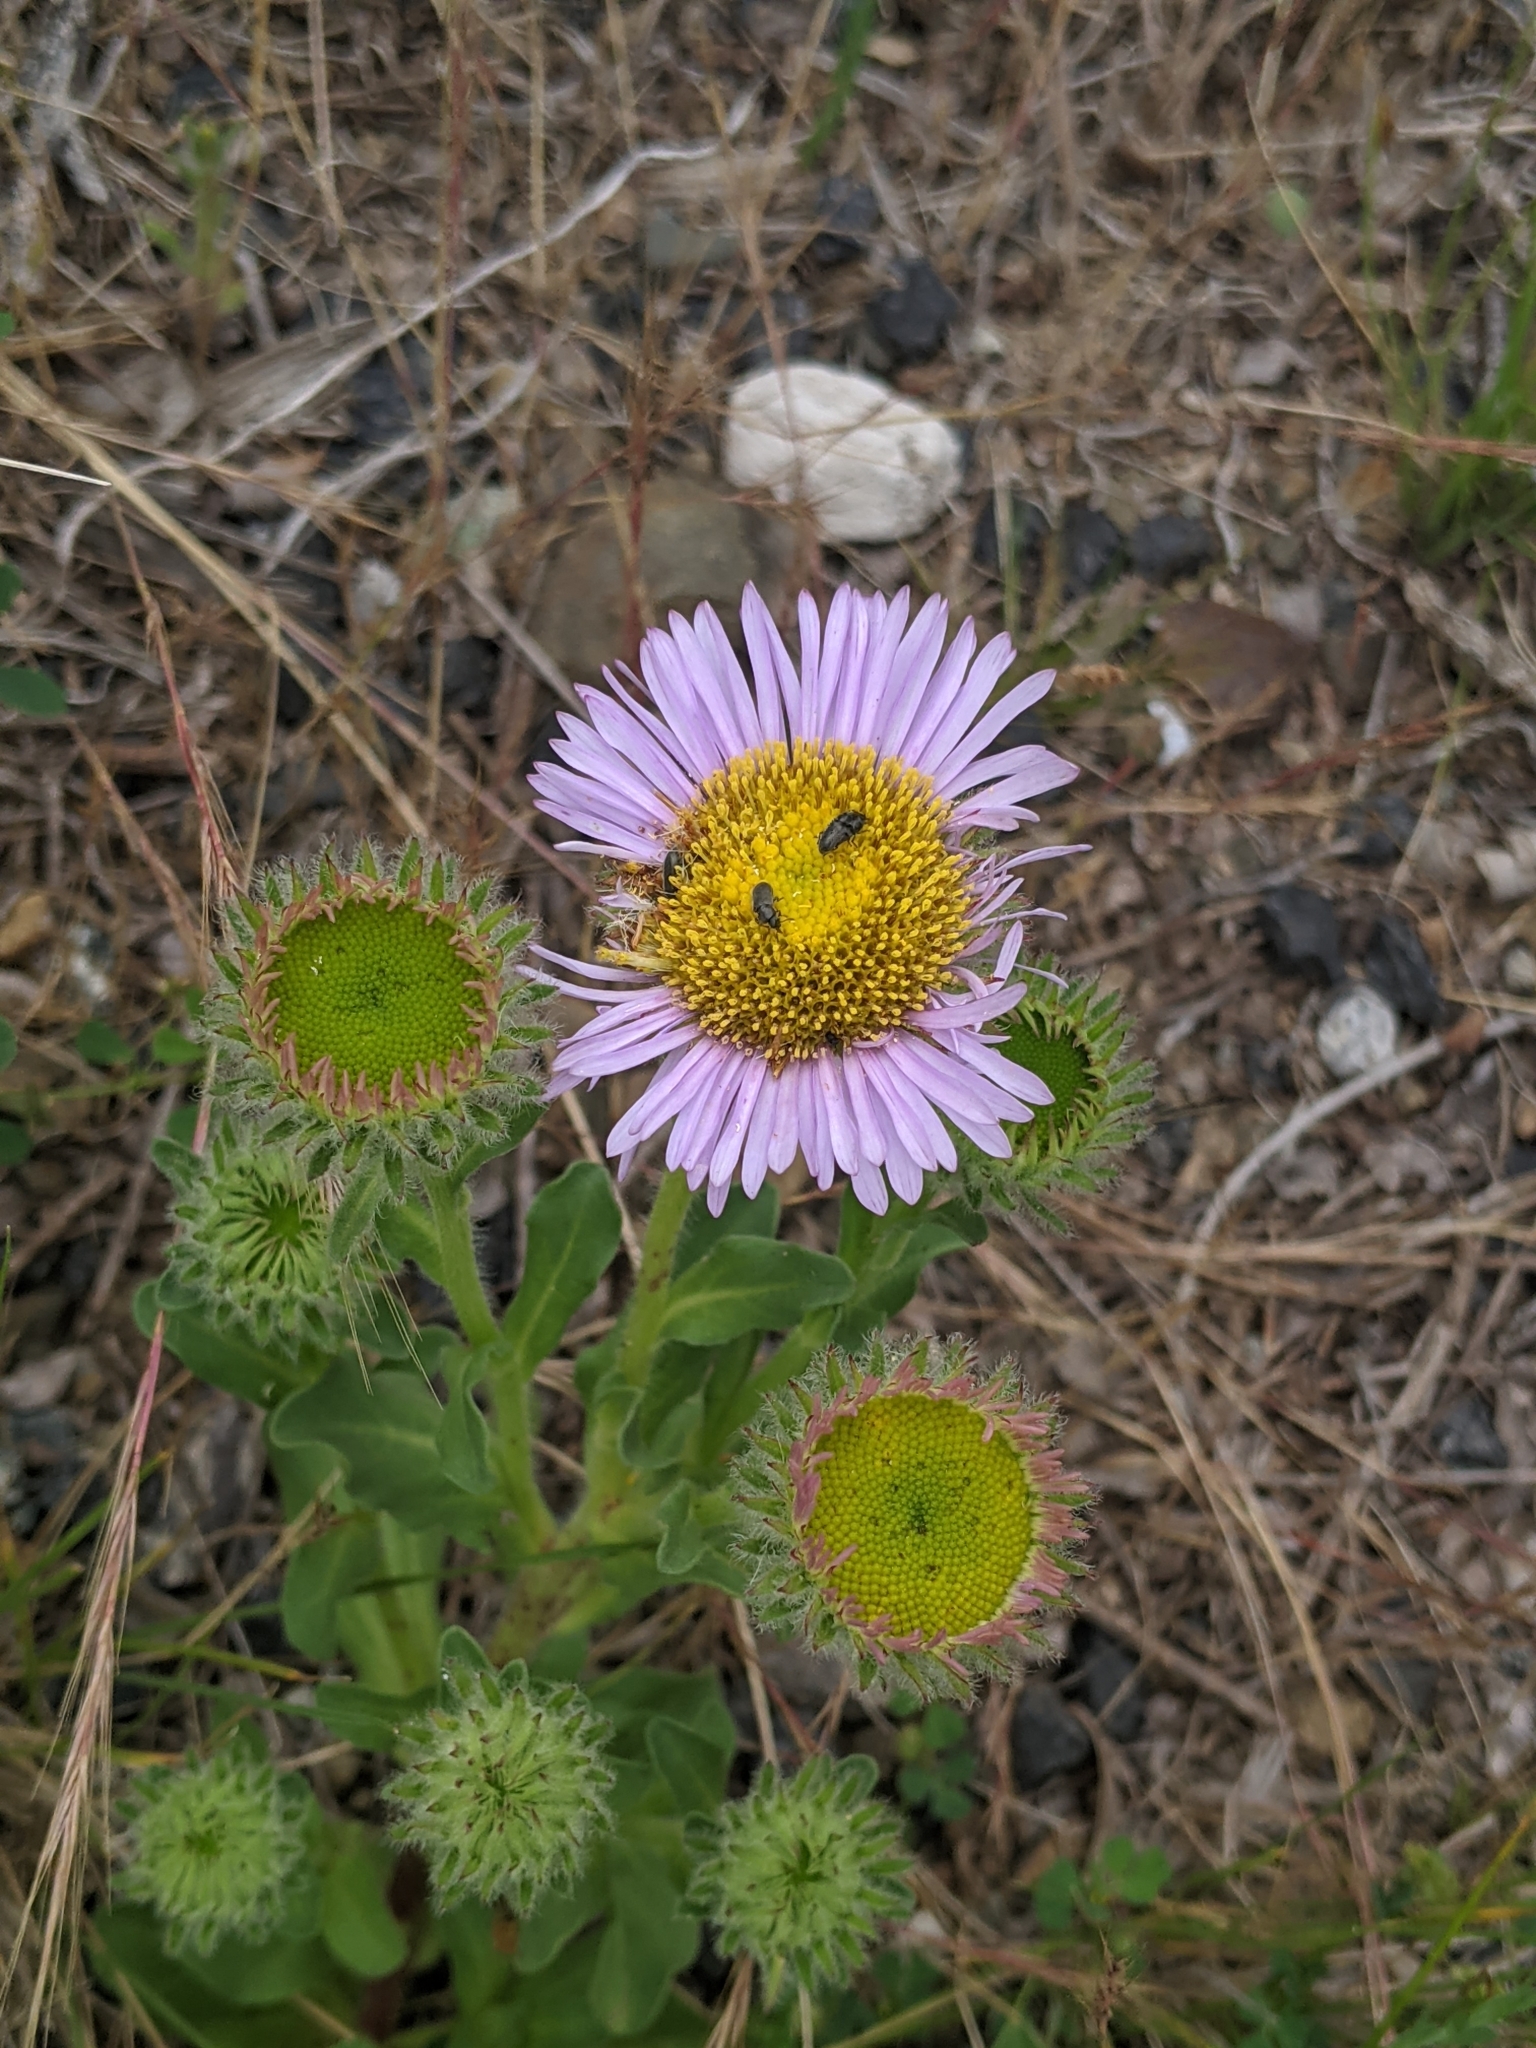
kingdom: Plantae
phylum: Tracheophyta
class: Magnoliopsida
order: Asterales
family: Asteraceae
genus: Erigeron
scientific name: Erigeron glaucus
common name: Seaside daisy
